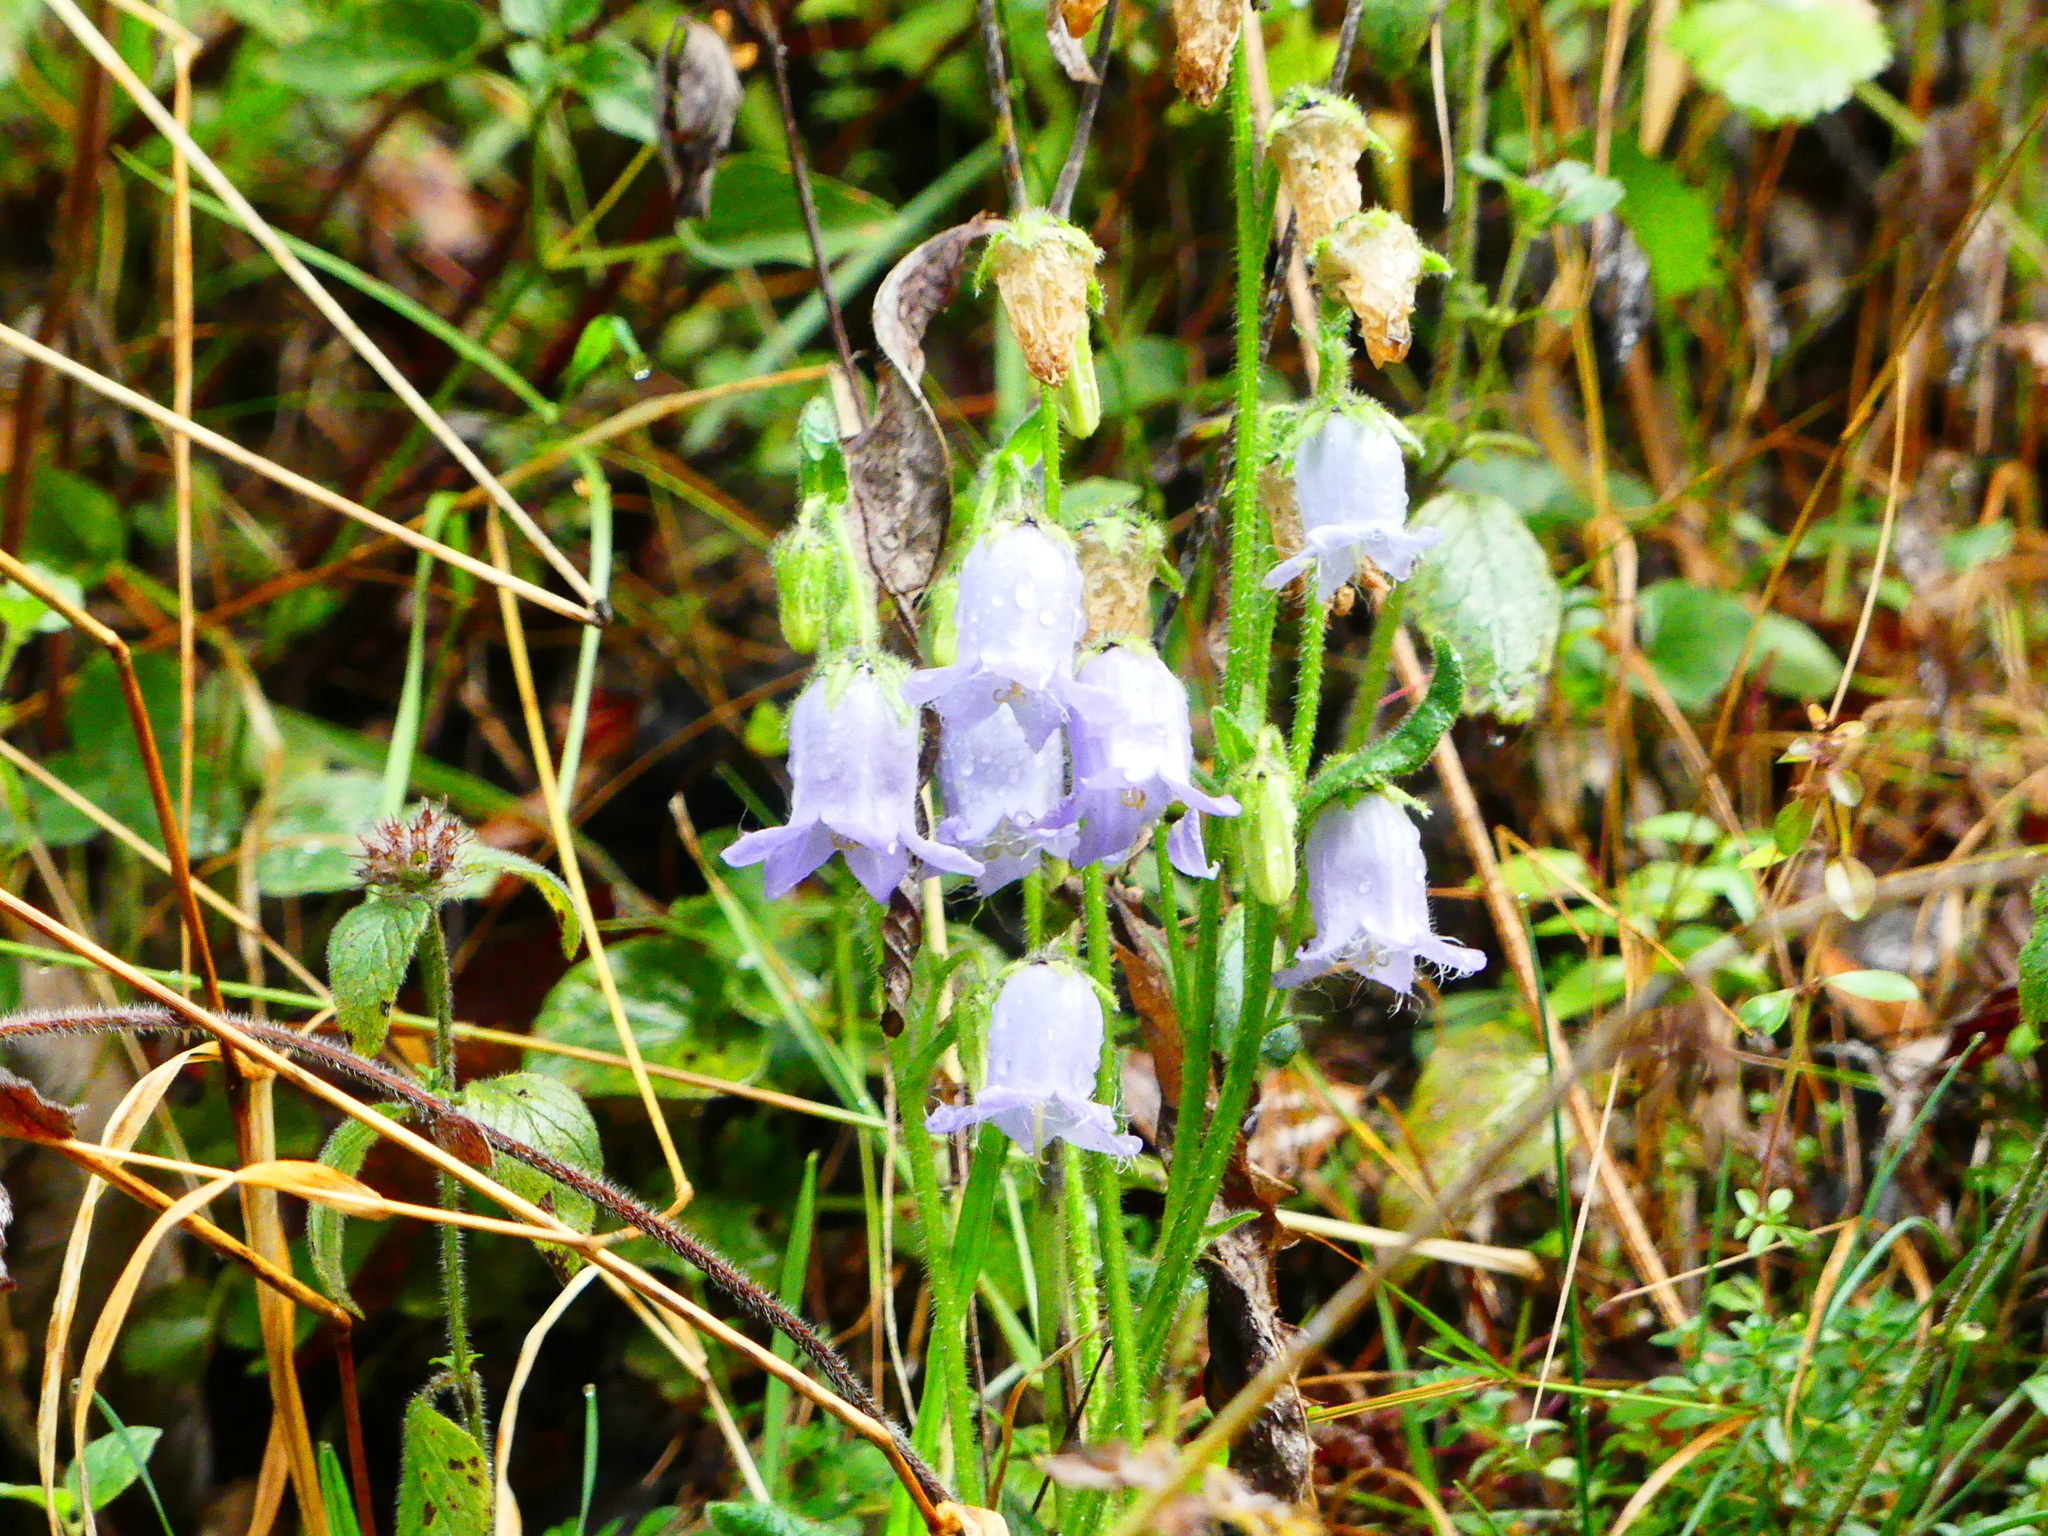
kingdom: Plantae
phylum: Tracheophyta
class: Magnoliopsida
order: Asterales
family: Campanulaceae
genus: Campanula
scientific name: Campanula barbata
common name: Bearded bellflower
